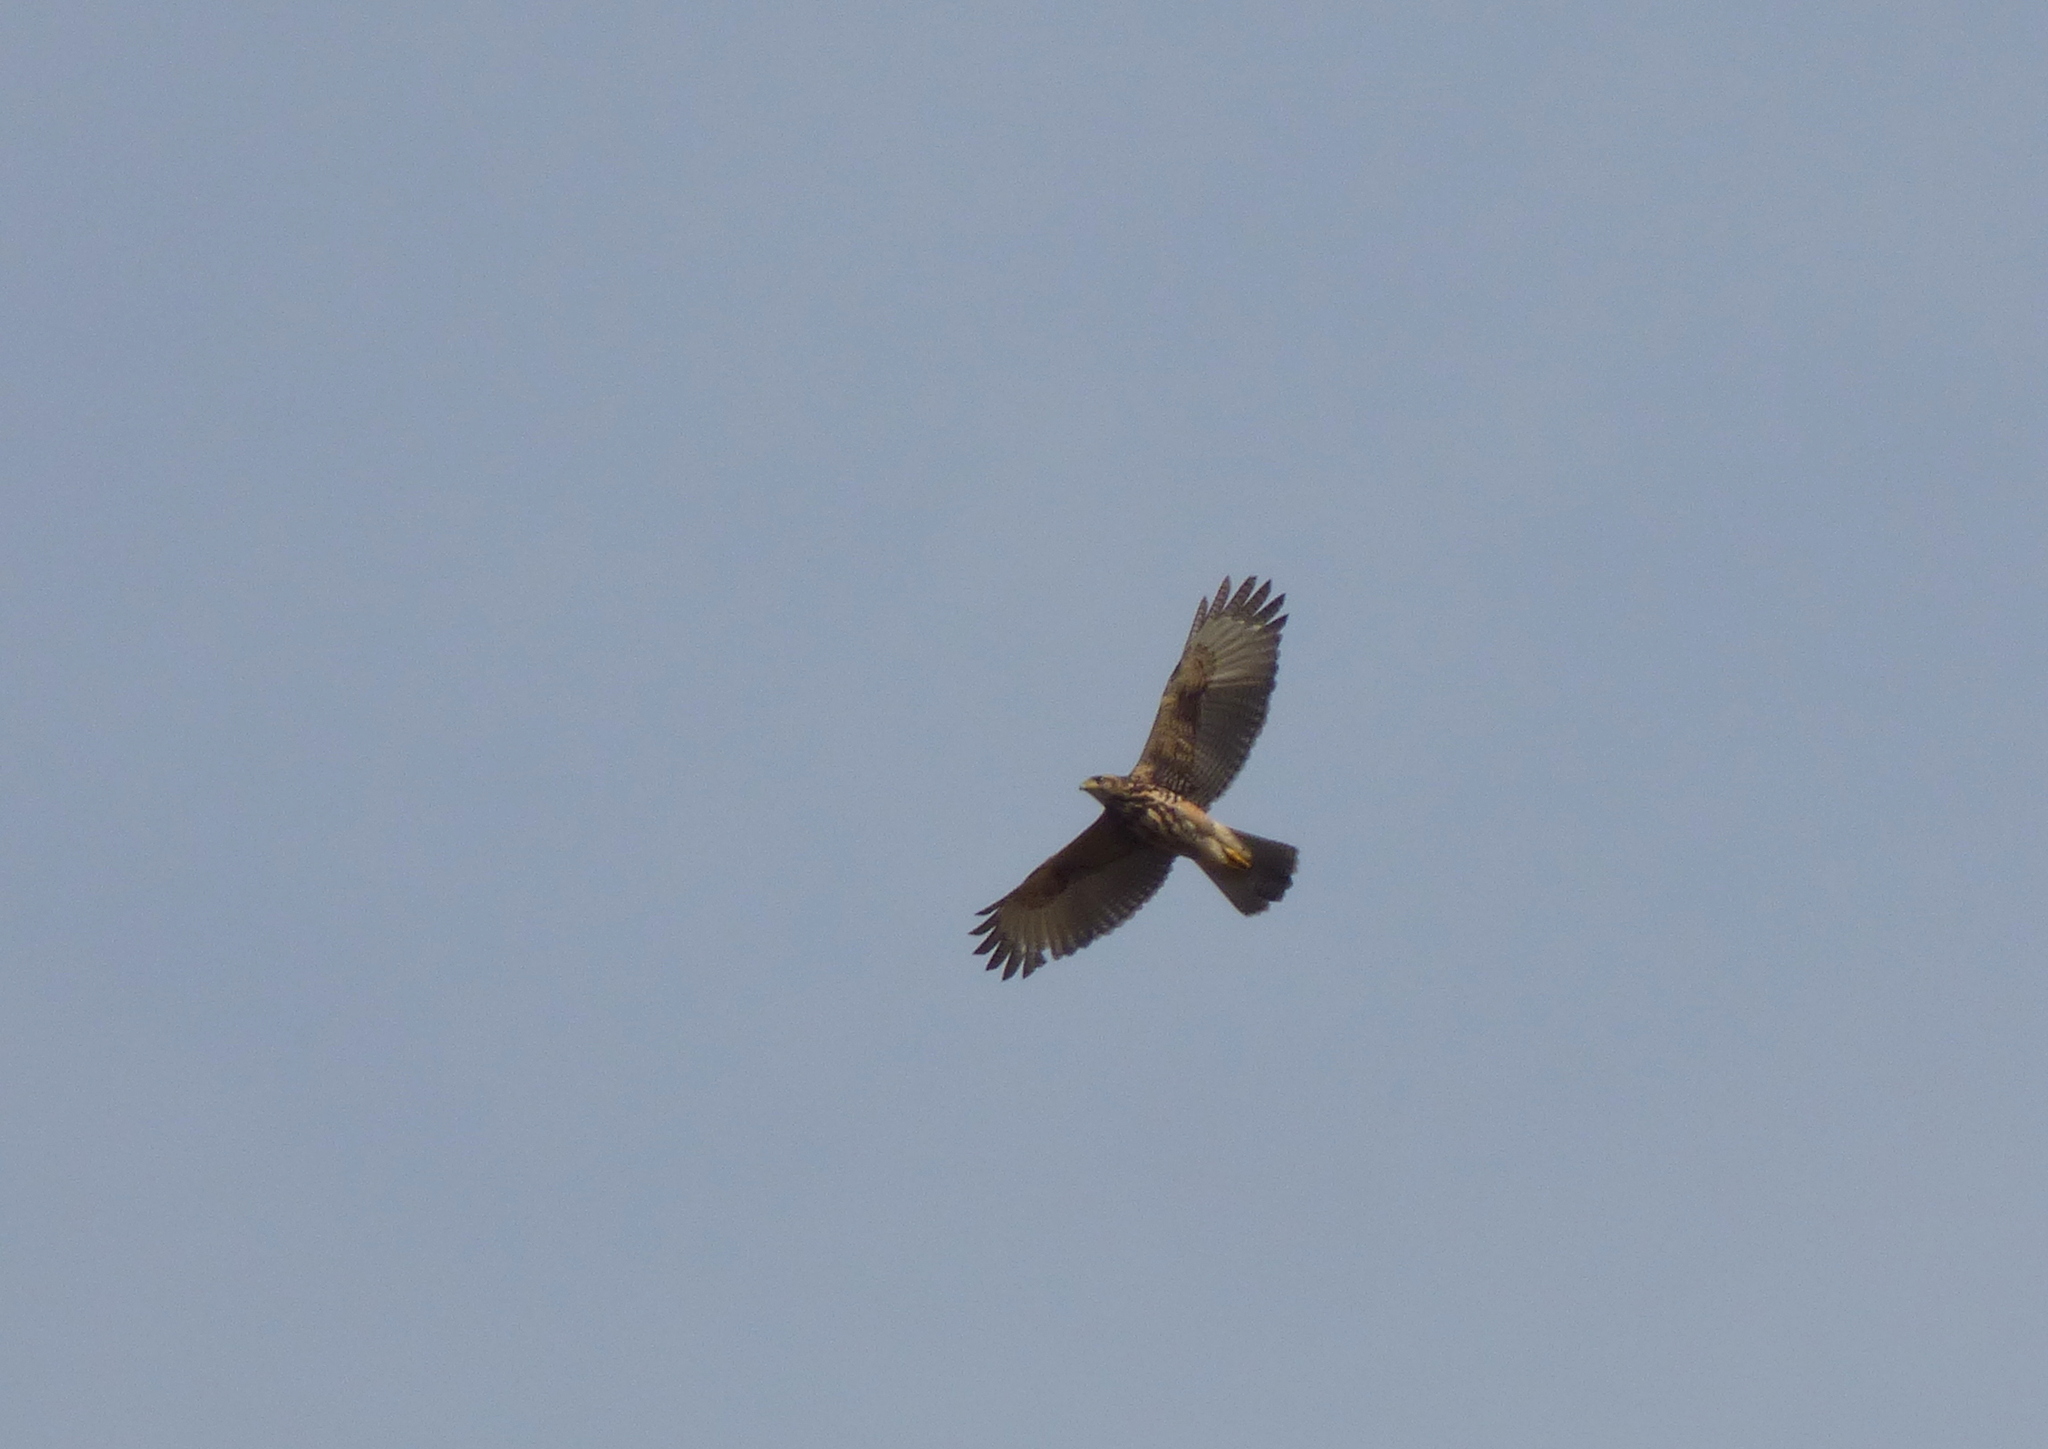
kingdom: Animalia
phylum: Chordata
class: Aves
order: Accipitriformes
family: Accipitridae
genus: Parabuteo
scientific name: Parabuteo unicinctus
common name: Harris's hawk
